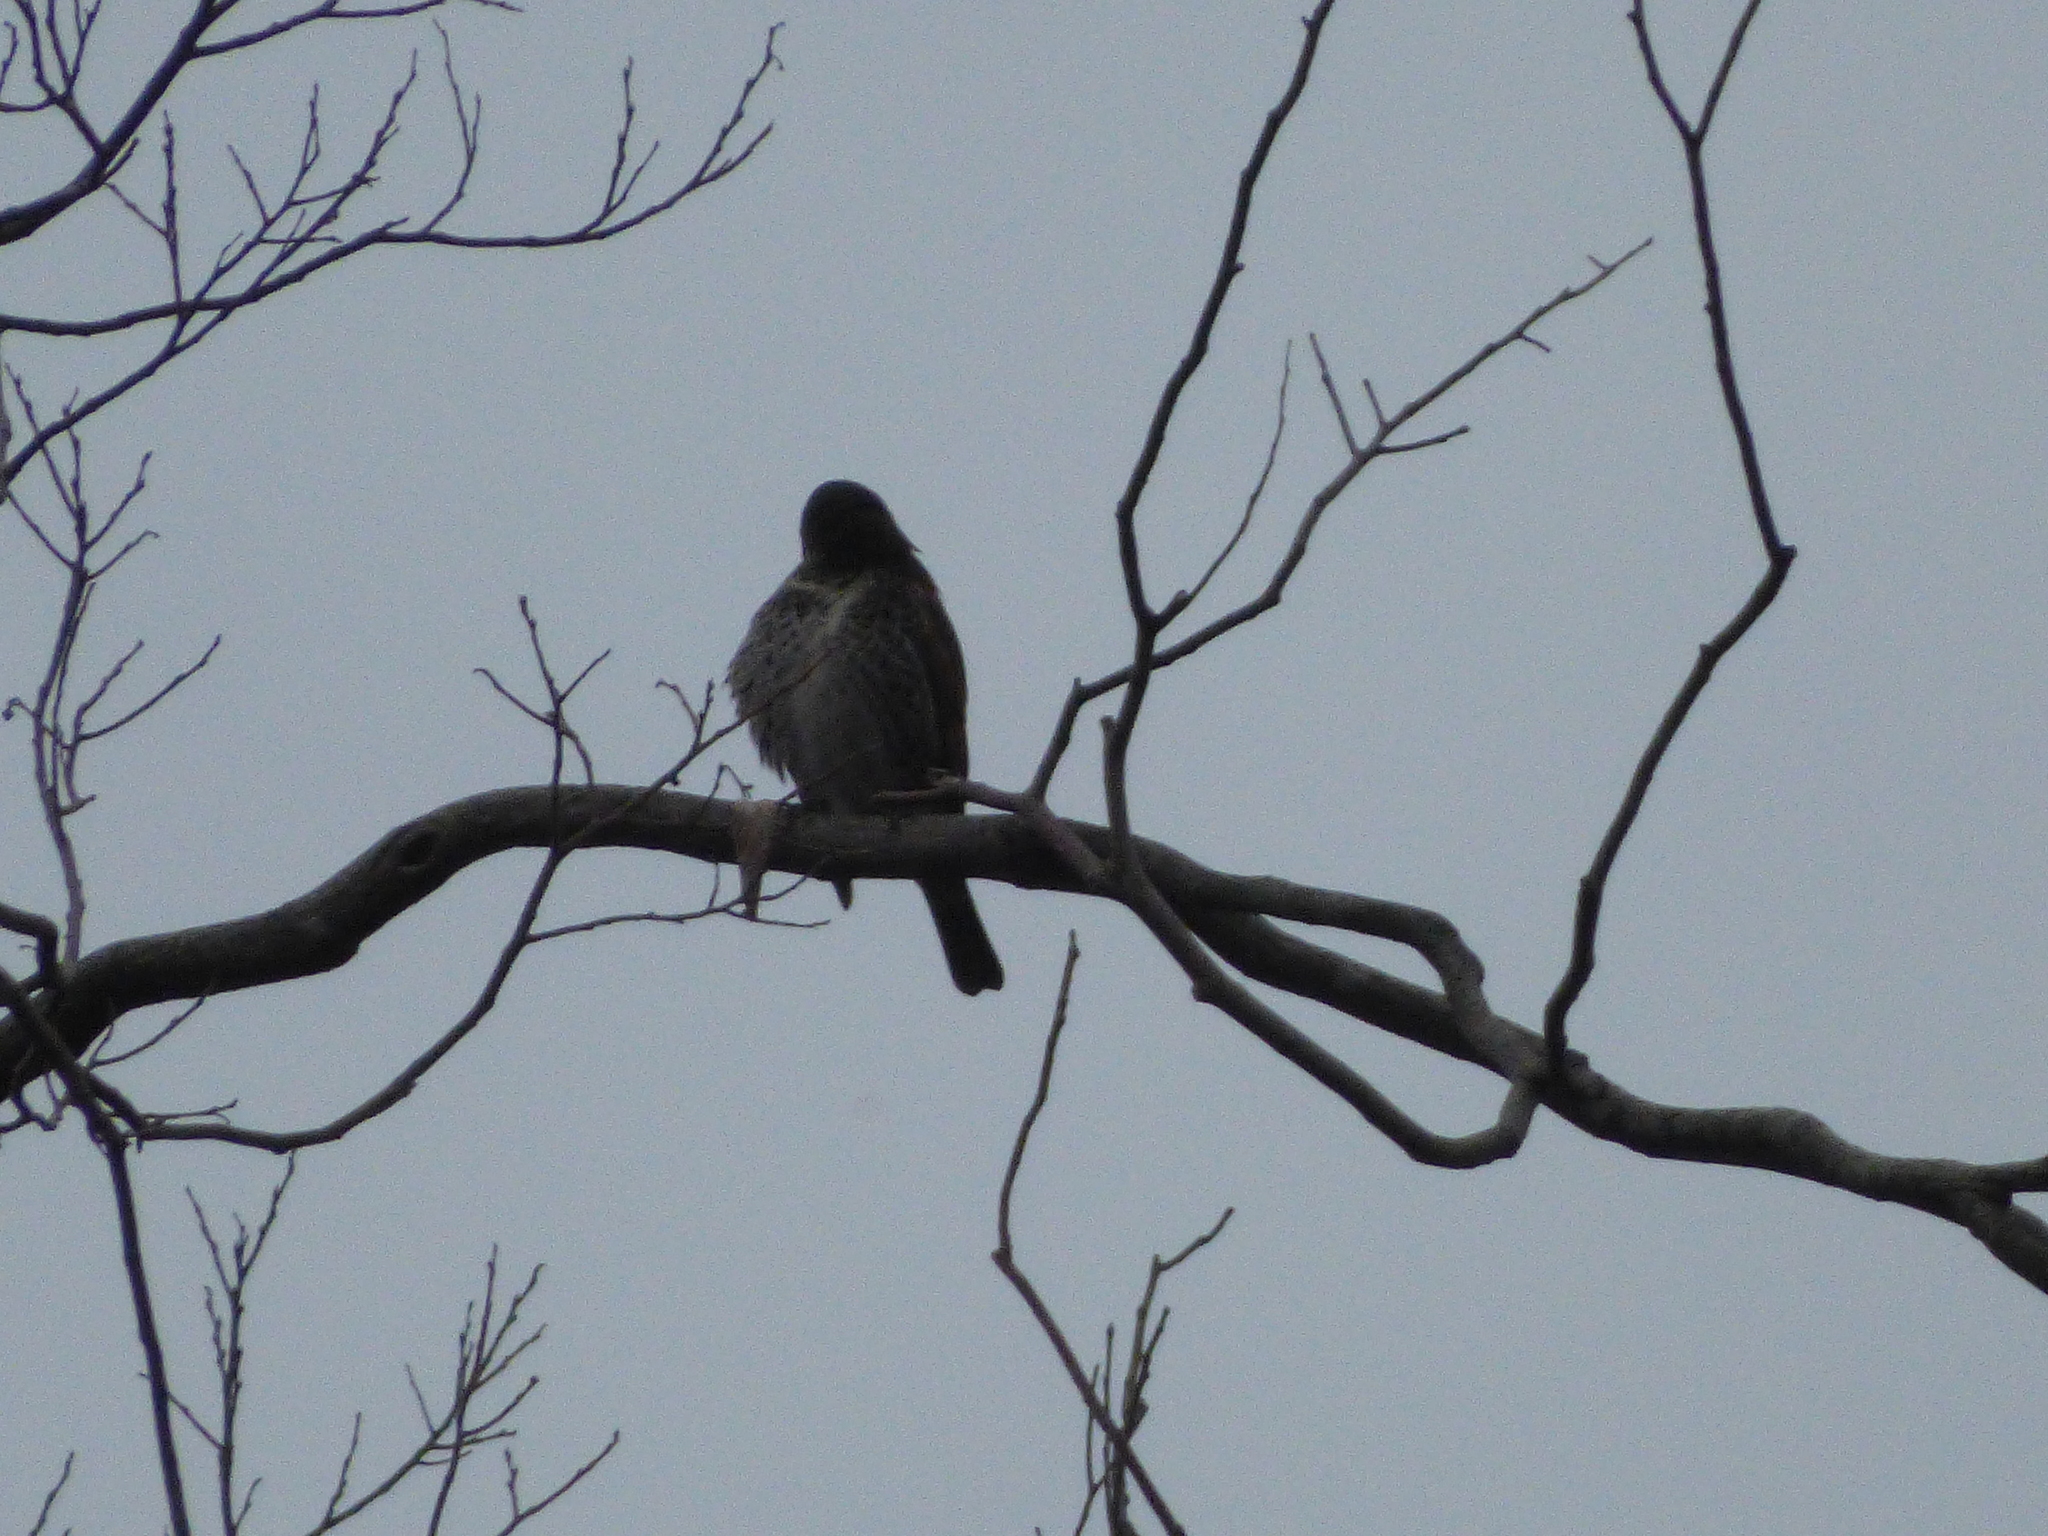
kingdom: Animalia
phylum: Chordata
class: Aves
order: Passeriformes
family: Turdidae
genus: Turdus
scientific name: Turdus eunomus
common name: Dusky thrush
